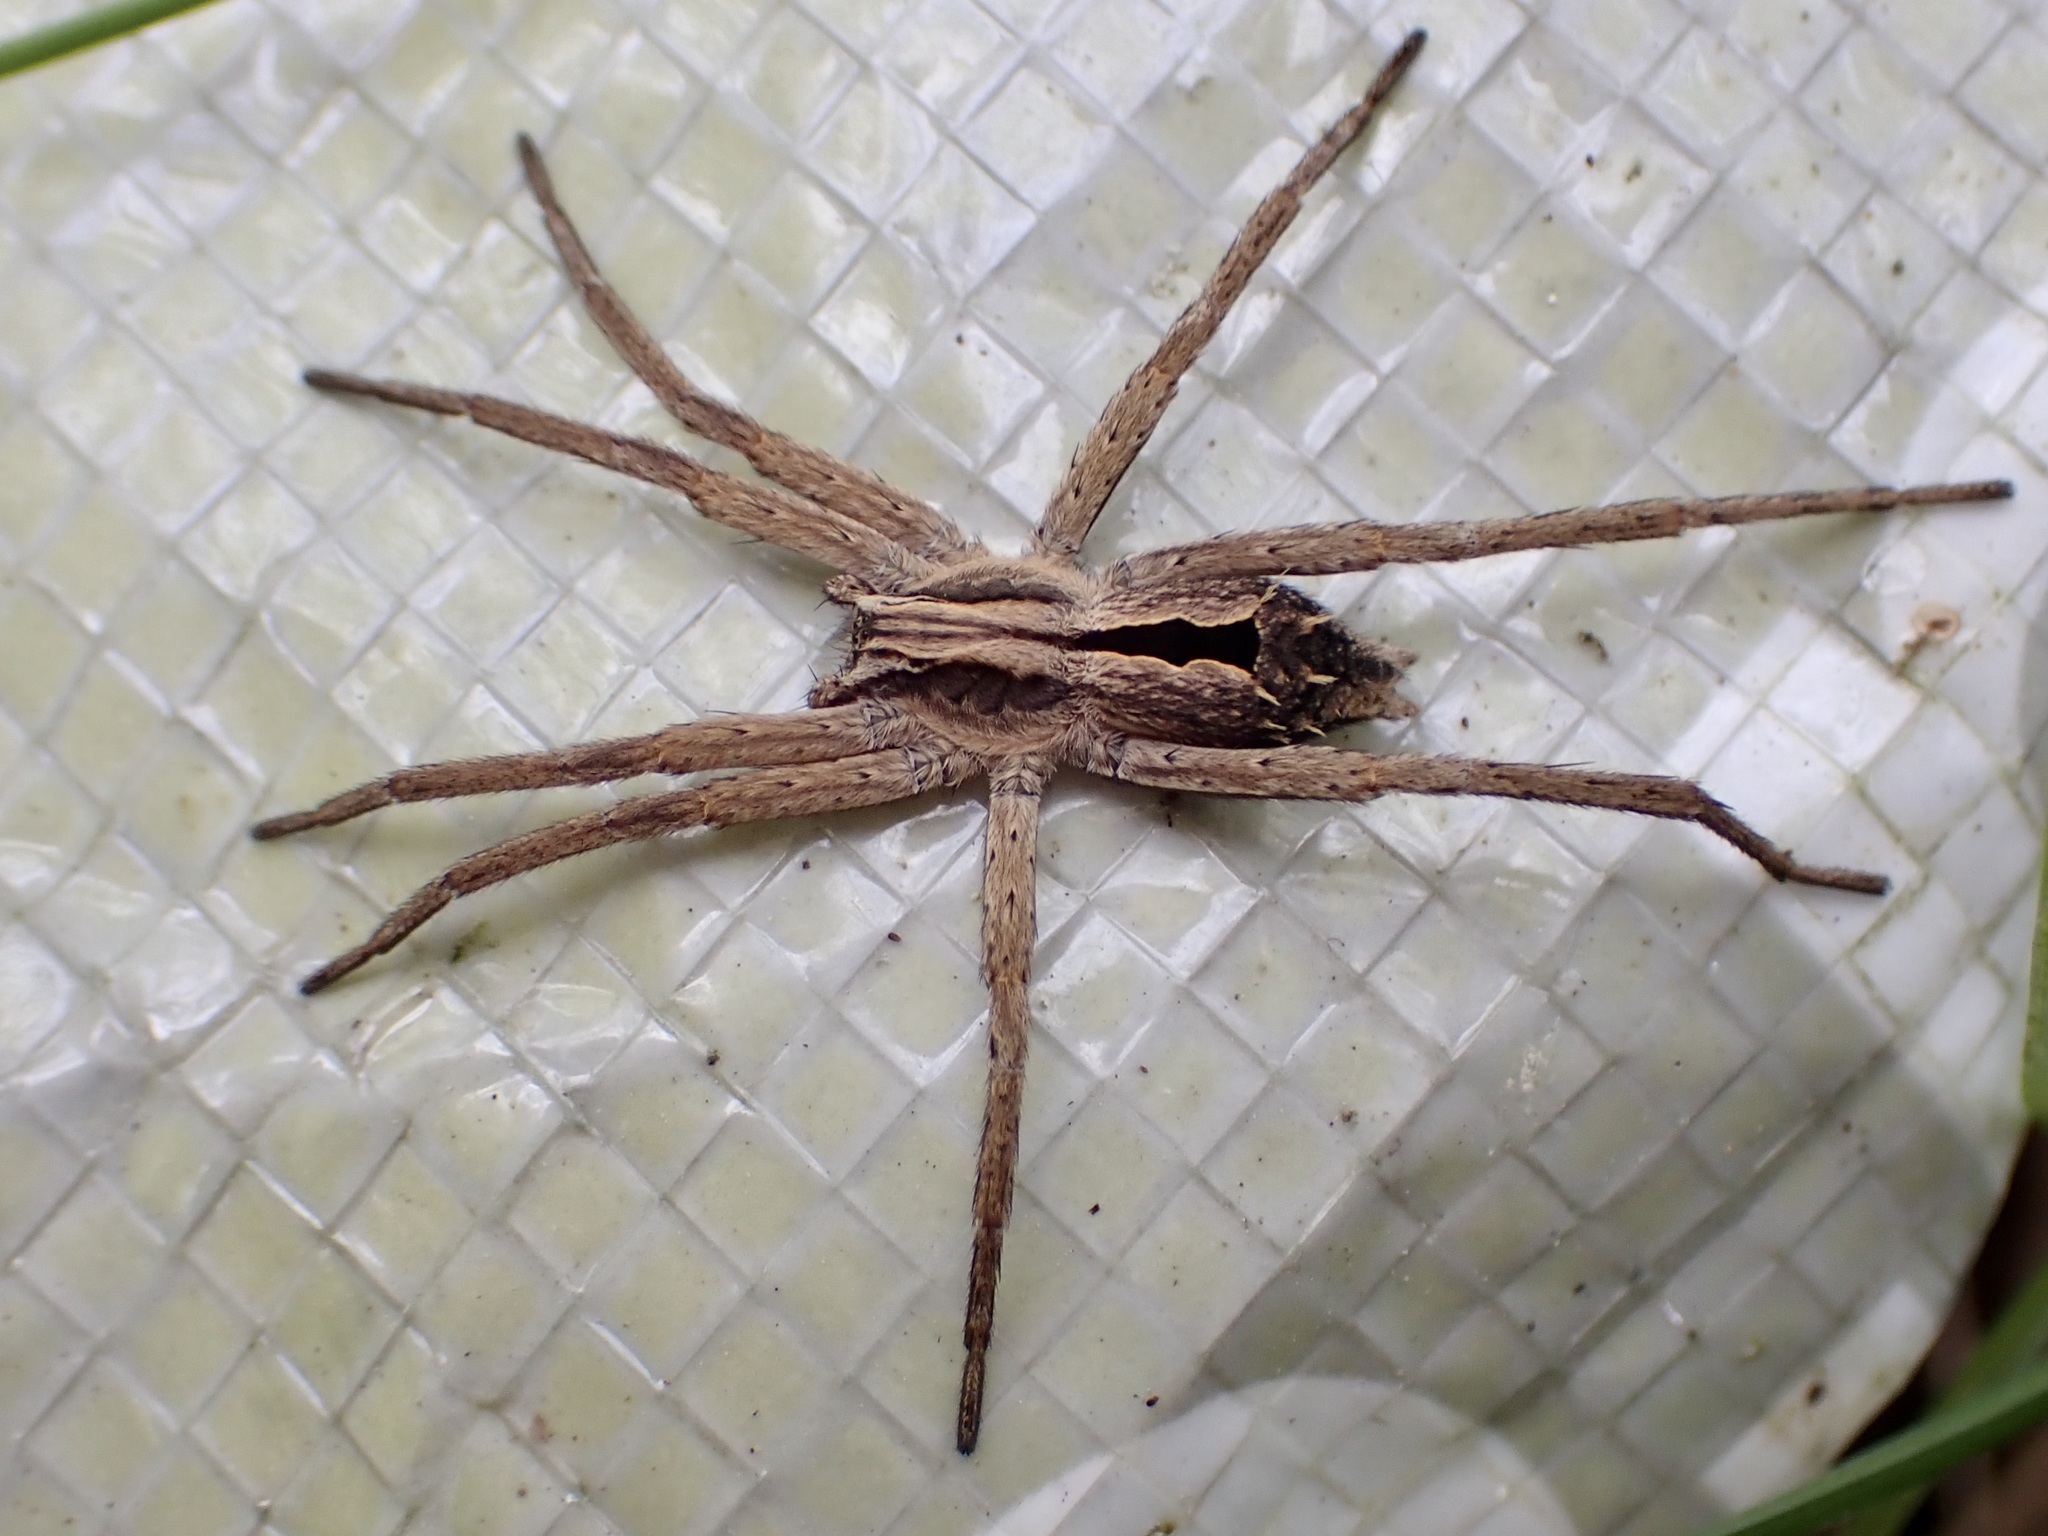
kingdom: Animalia
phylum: Arthropoda
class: Arachnida
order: Araneae
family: Miturgidae
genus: Argoctenus
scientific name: Argoctenus
